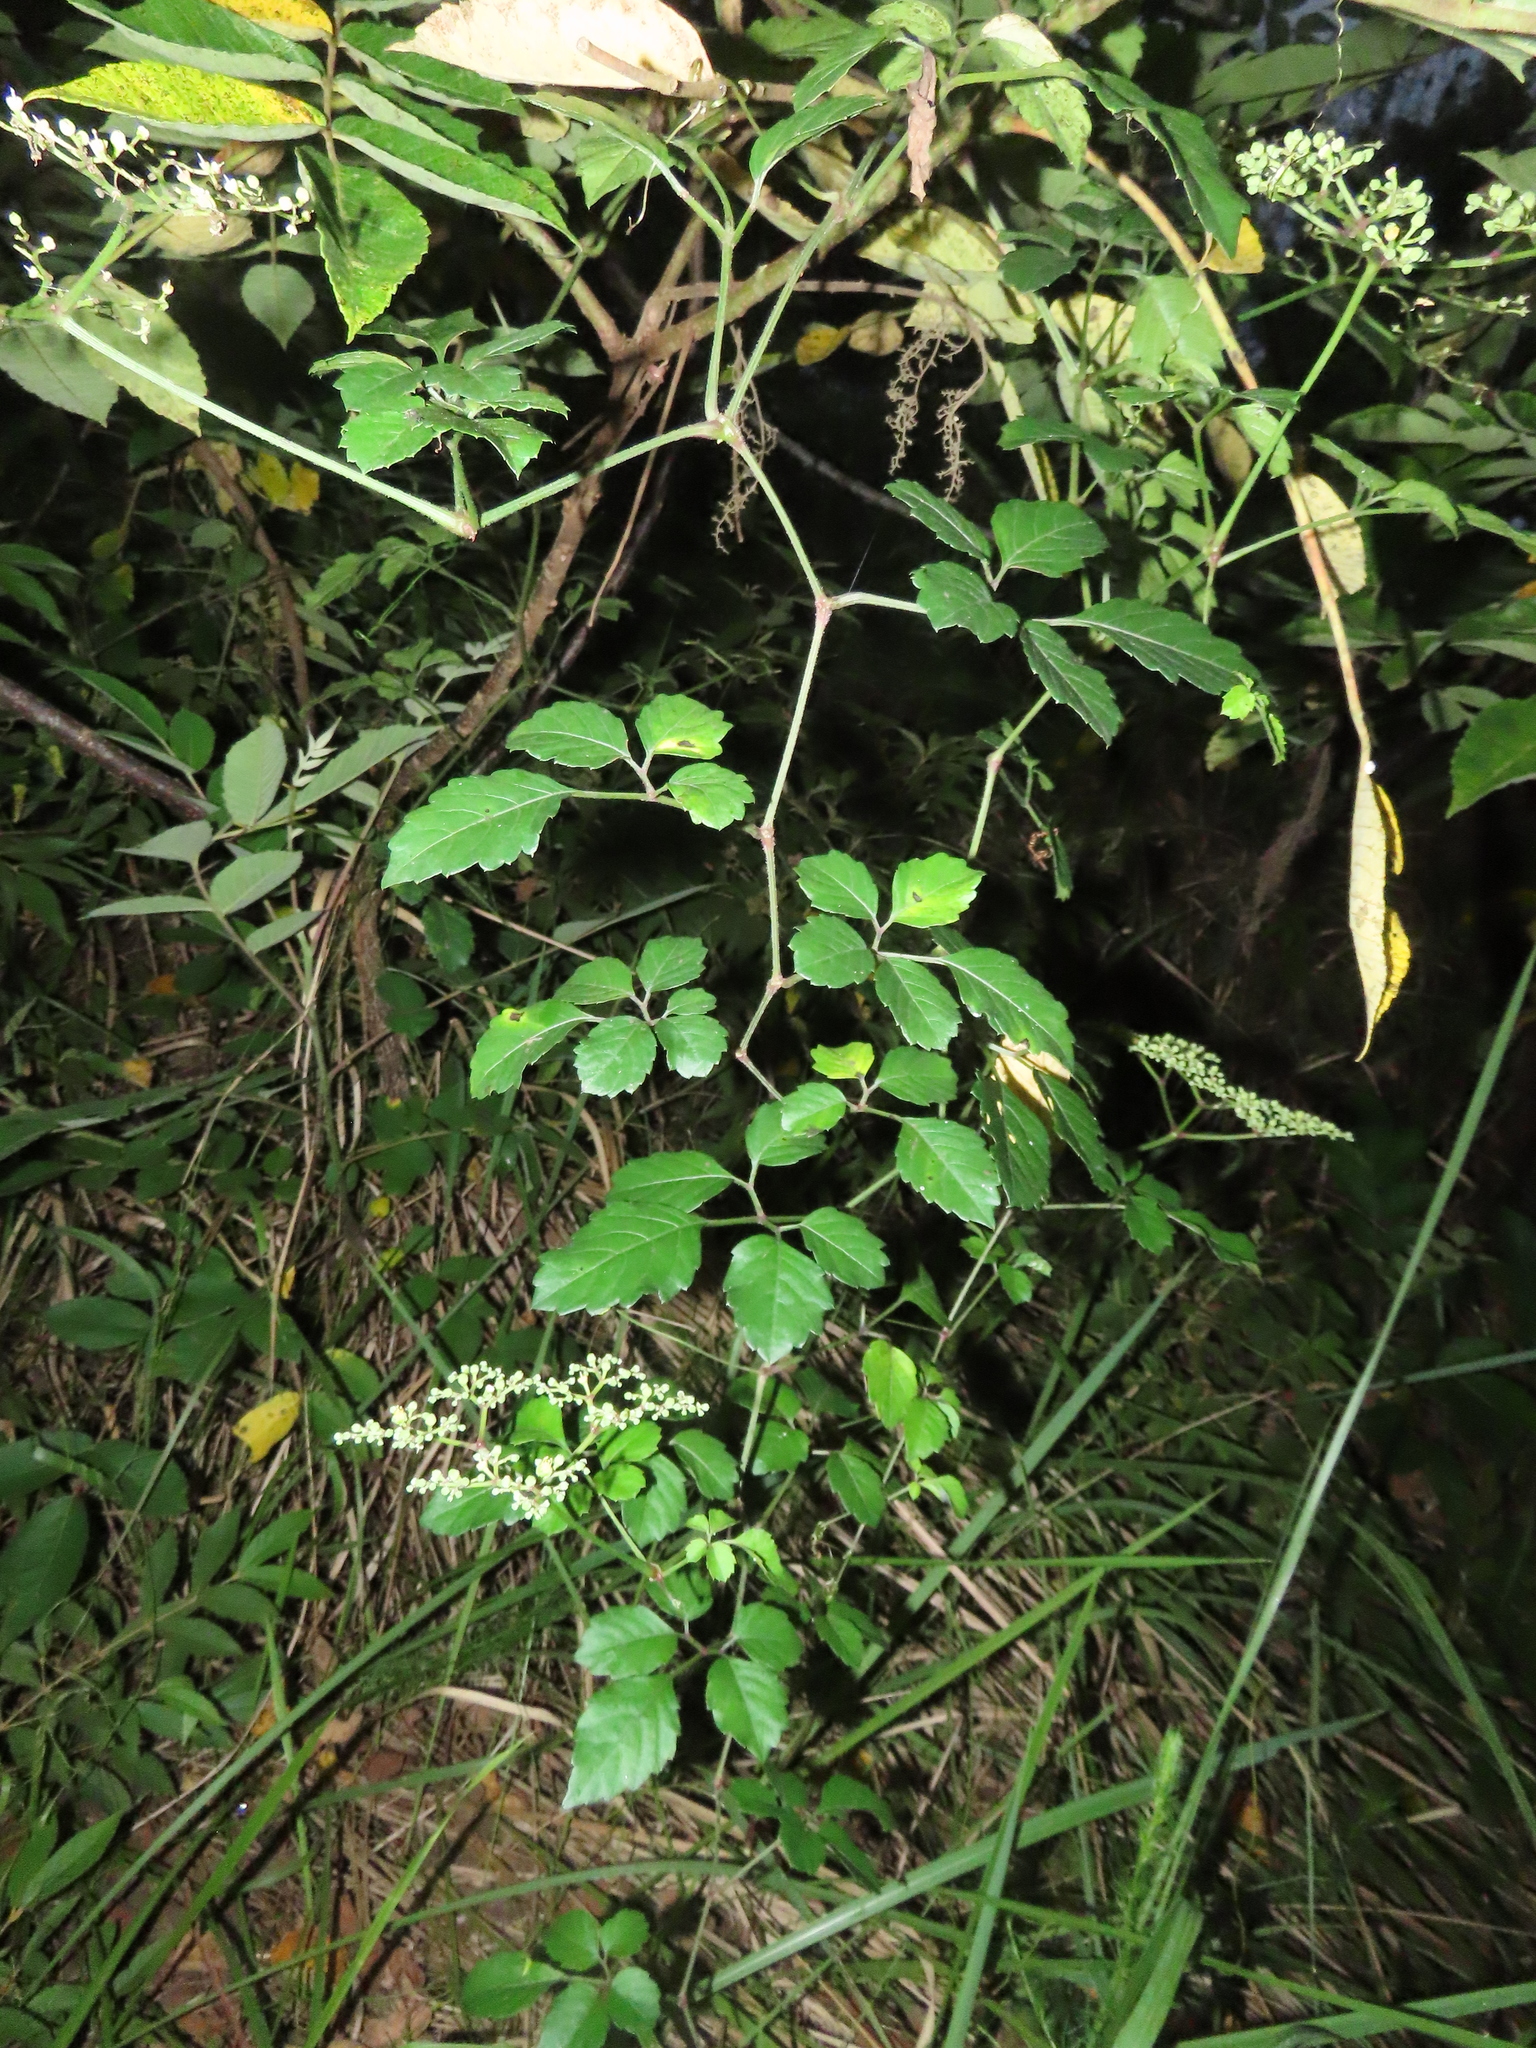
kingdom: Plantae
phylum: Tracheophyta
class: Magnoliopsida
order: Vitales
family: Vitaceae
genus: Causonis
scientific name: Causonis japonica
